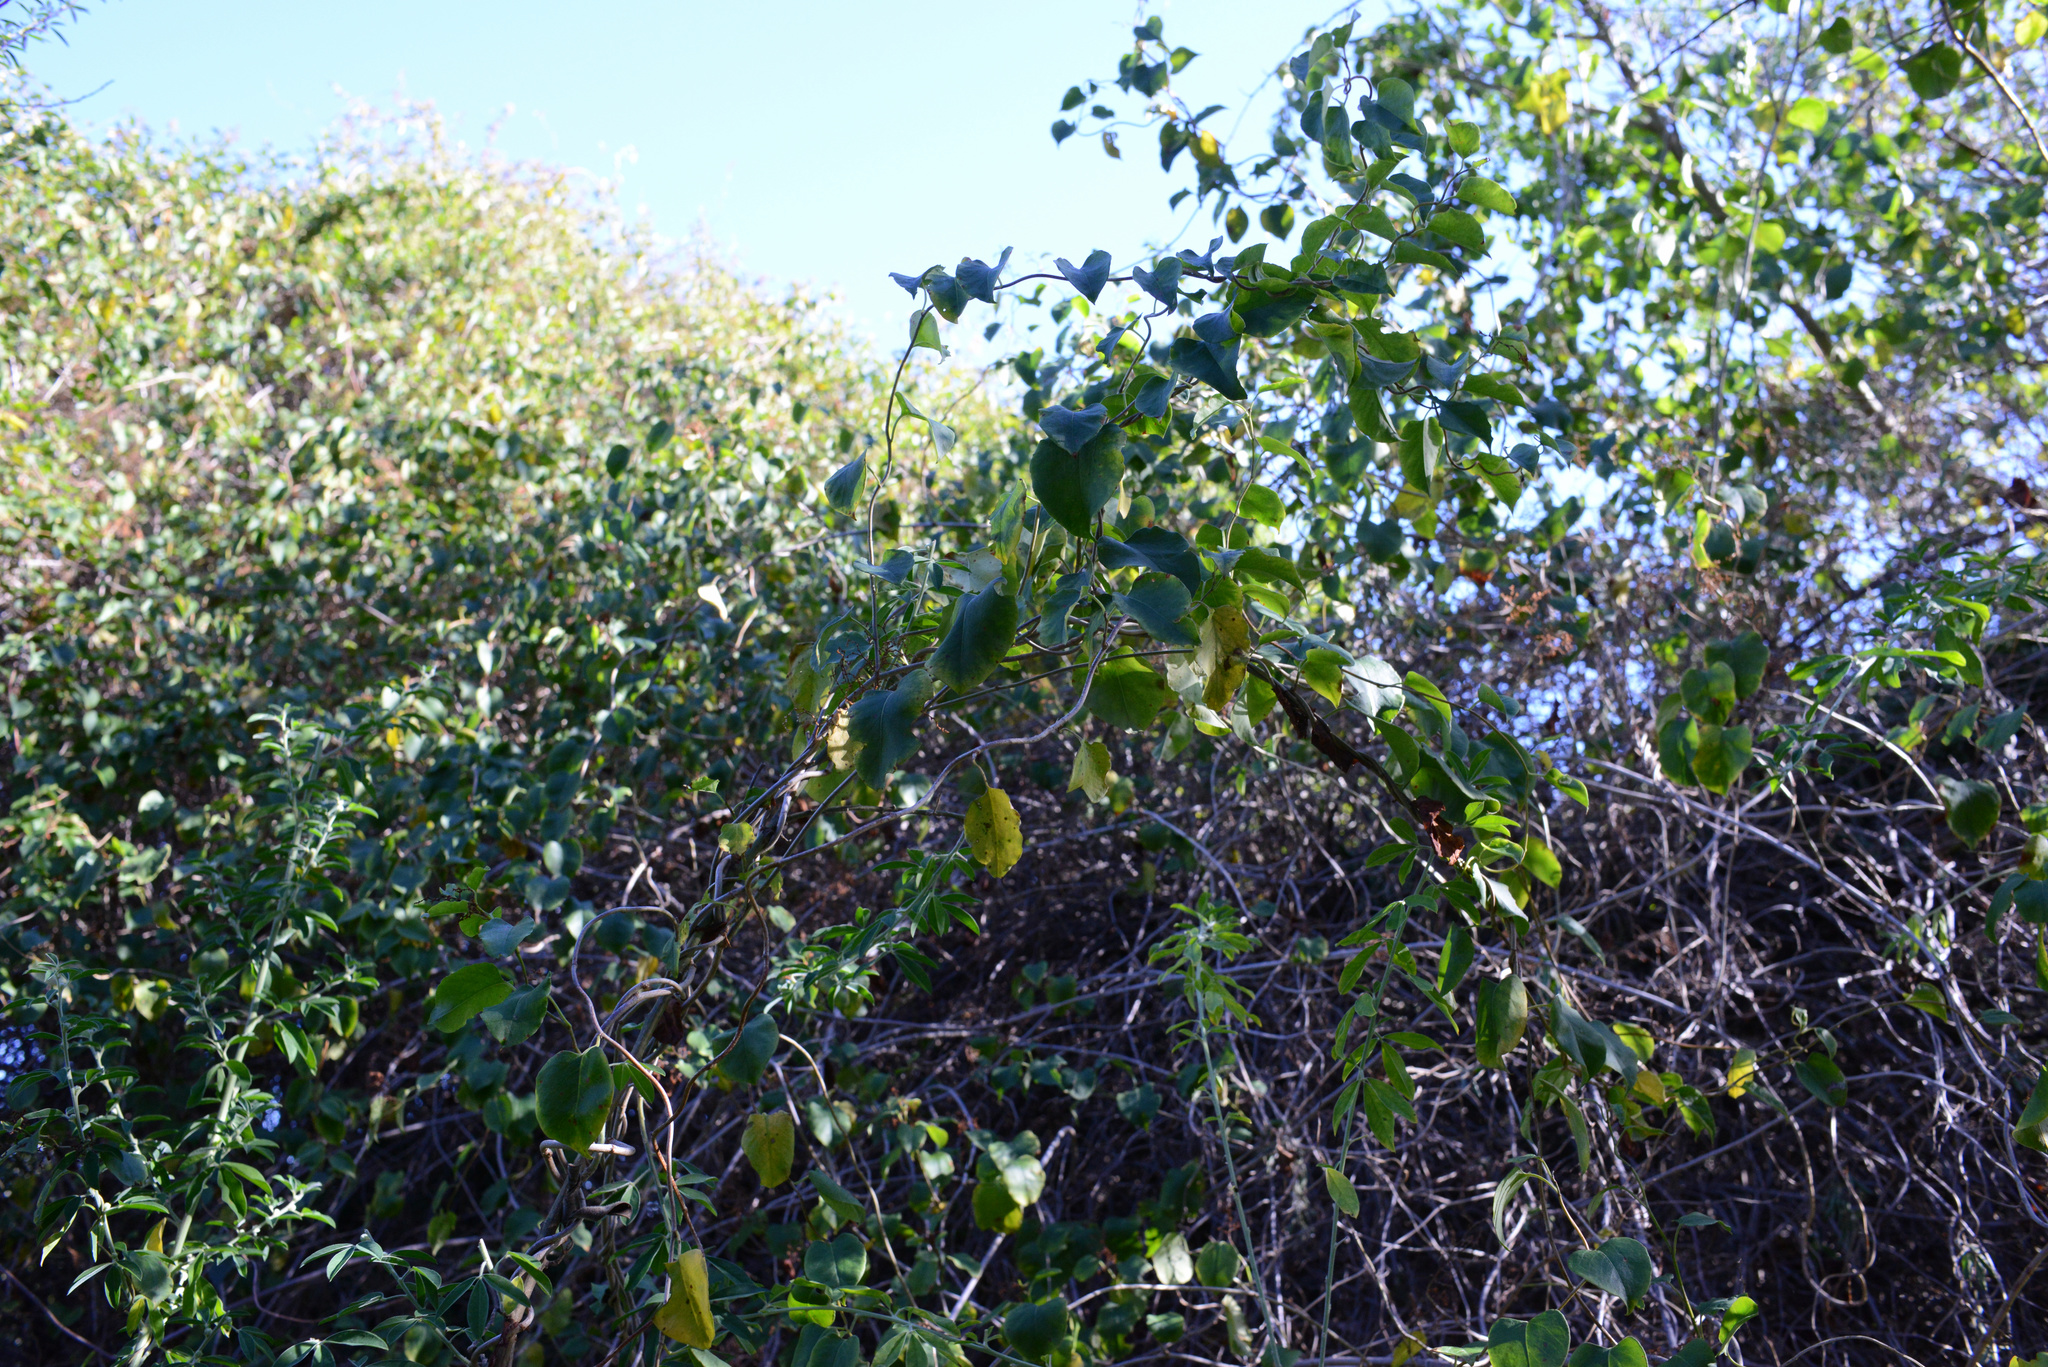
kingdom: Plantae
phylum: Tracheophyta
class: Magnoliopsida
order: Caryophyllales
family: Polygonaceae
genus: Muehlenbeckia
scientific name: Muehlenbeckia australis
